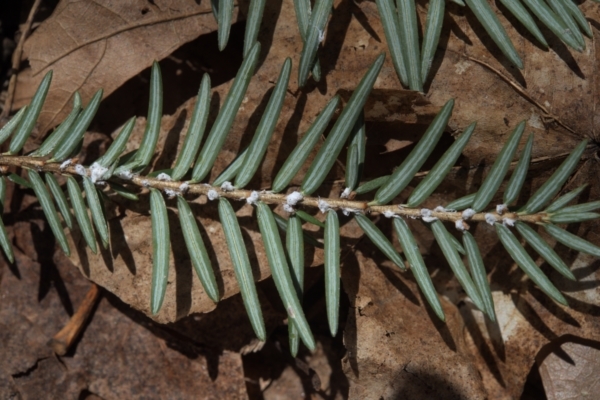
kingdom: Animalia
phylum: Arthropoda
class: Insecta
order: Hemiptera
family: Adelgidae
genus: Adelges
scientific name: Adelges tsugae
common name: Hemlock woolly adelgid
